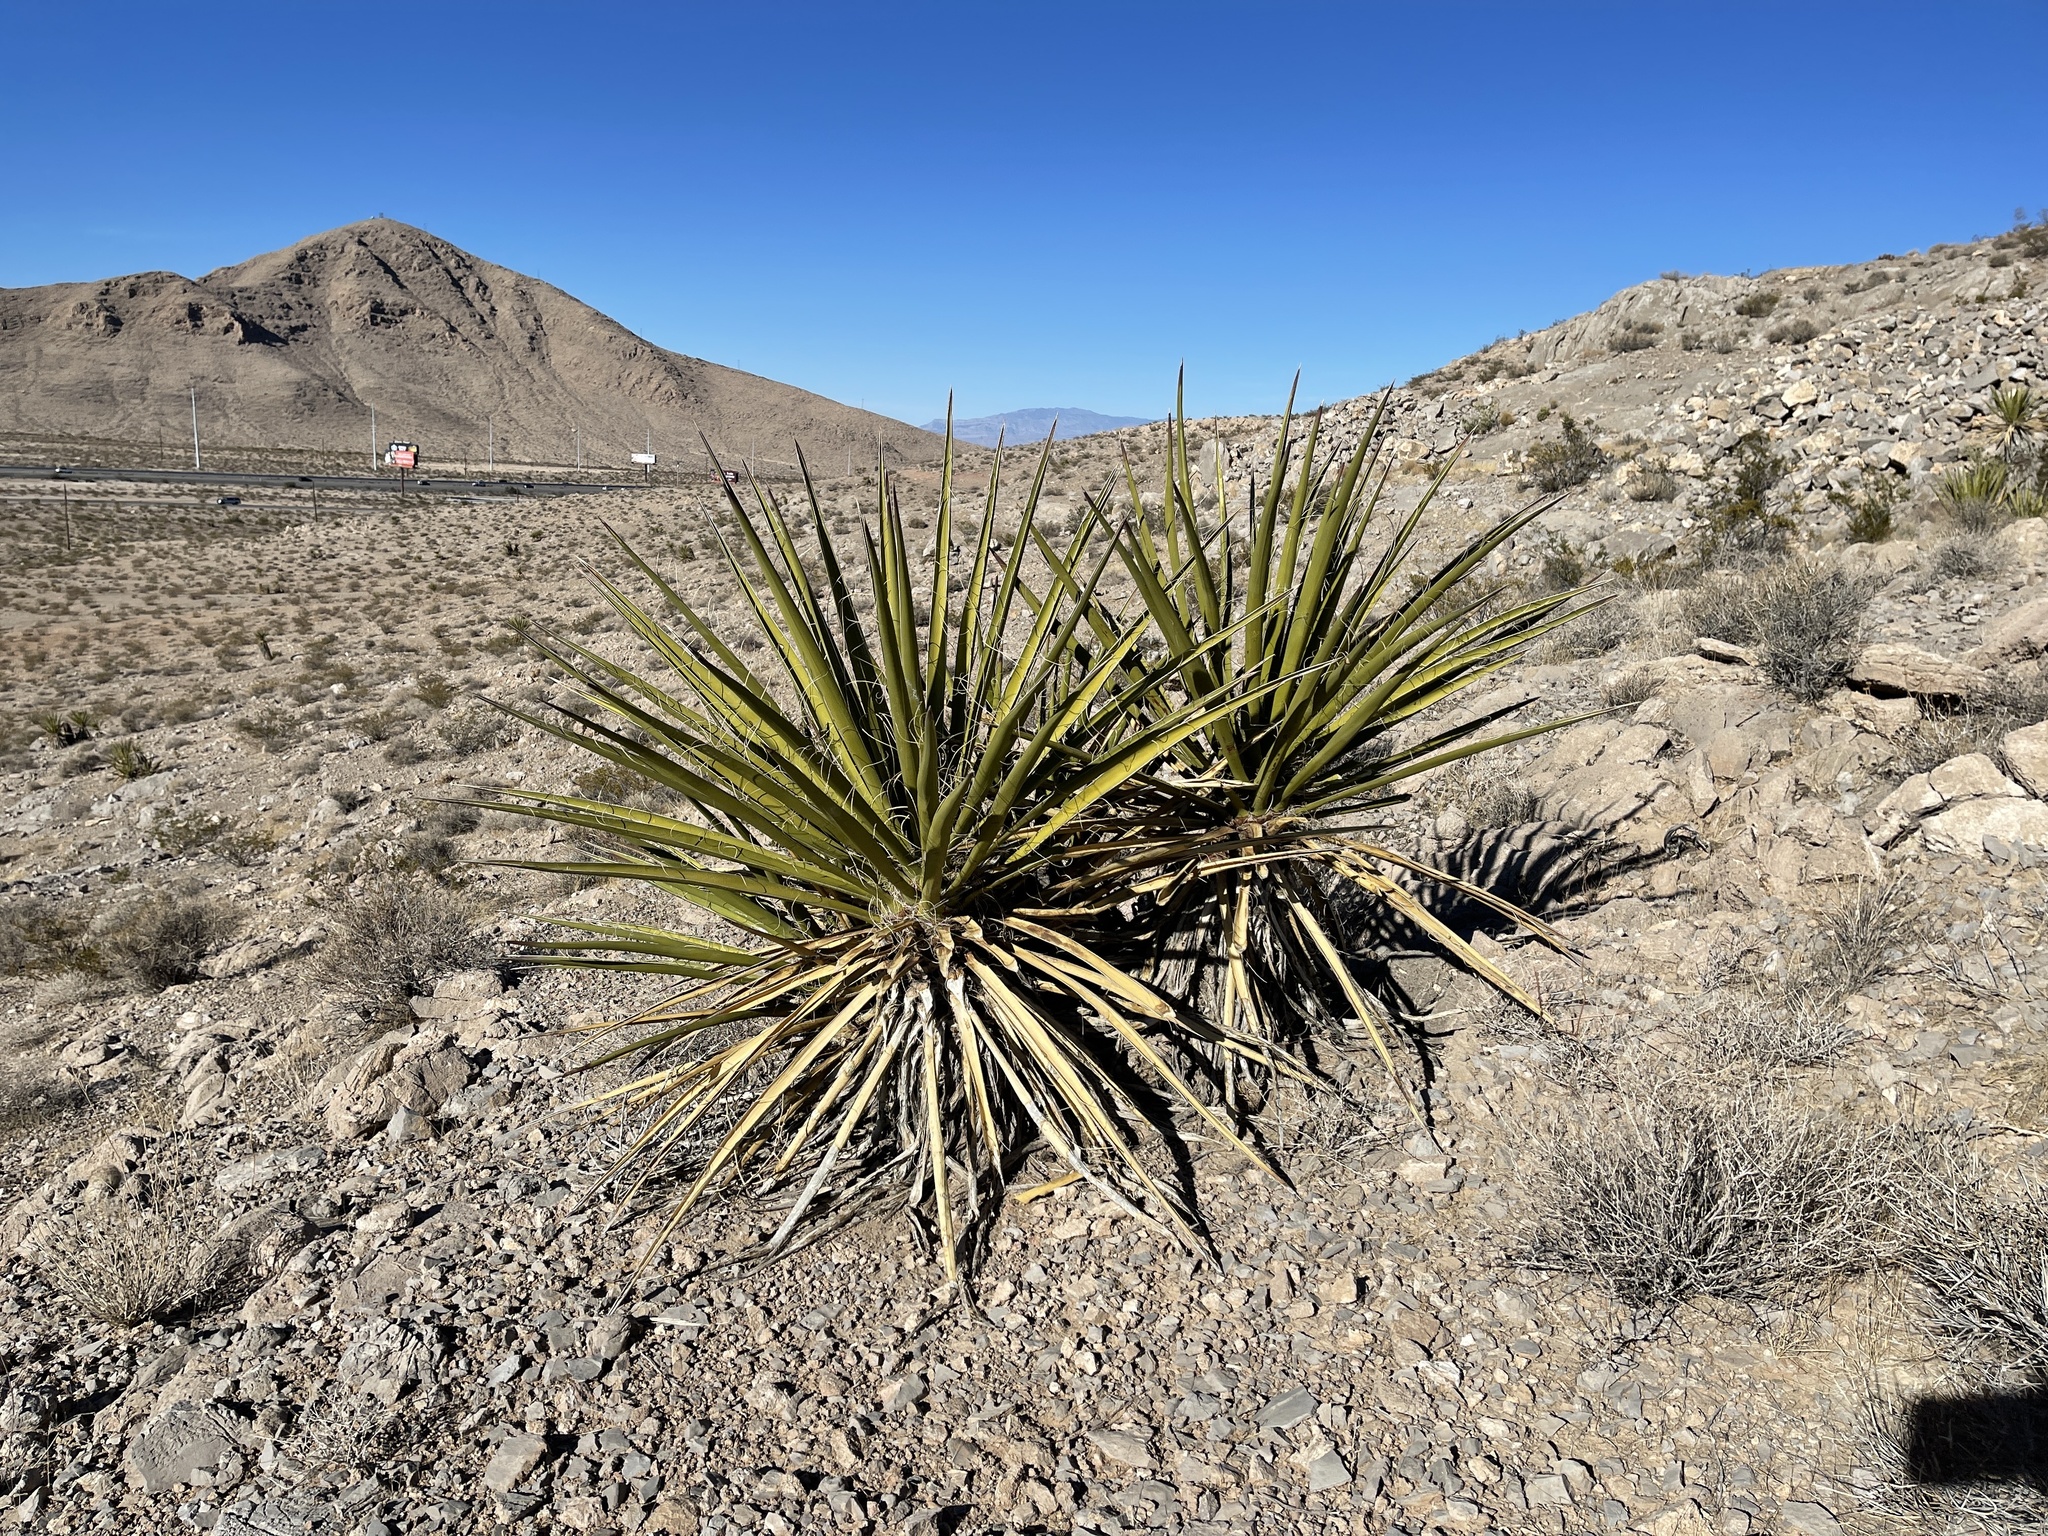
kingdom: Plantae
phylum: Tracheophyta
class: Liliopsida
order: Asparagales
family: Asparagaceae
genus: Yucca
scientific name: Yucca schidigera
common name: Mojave yucca
